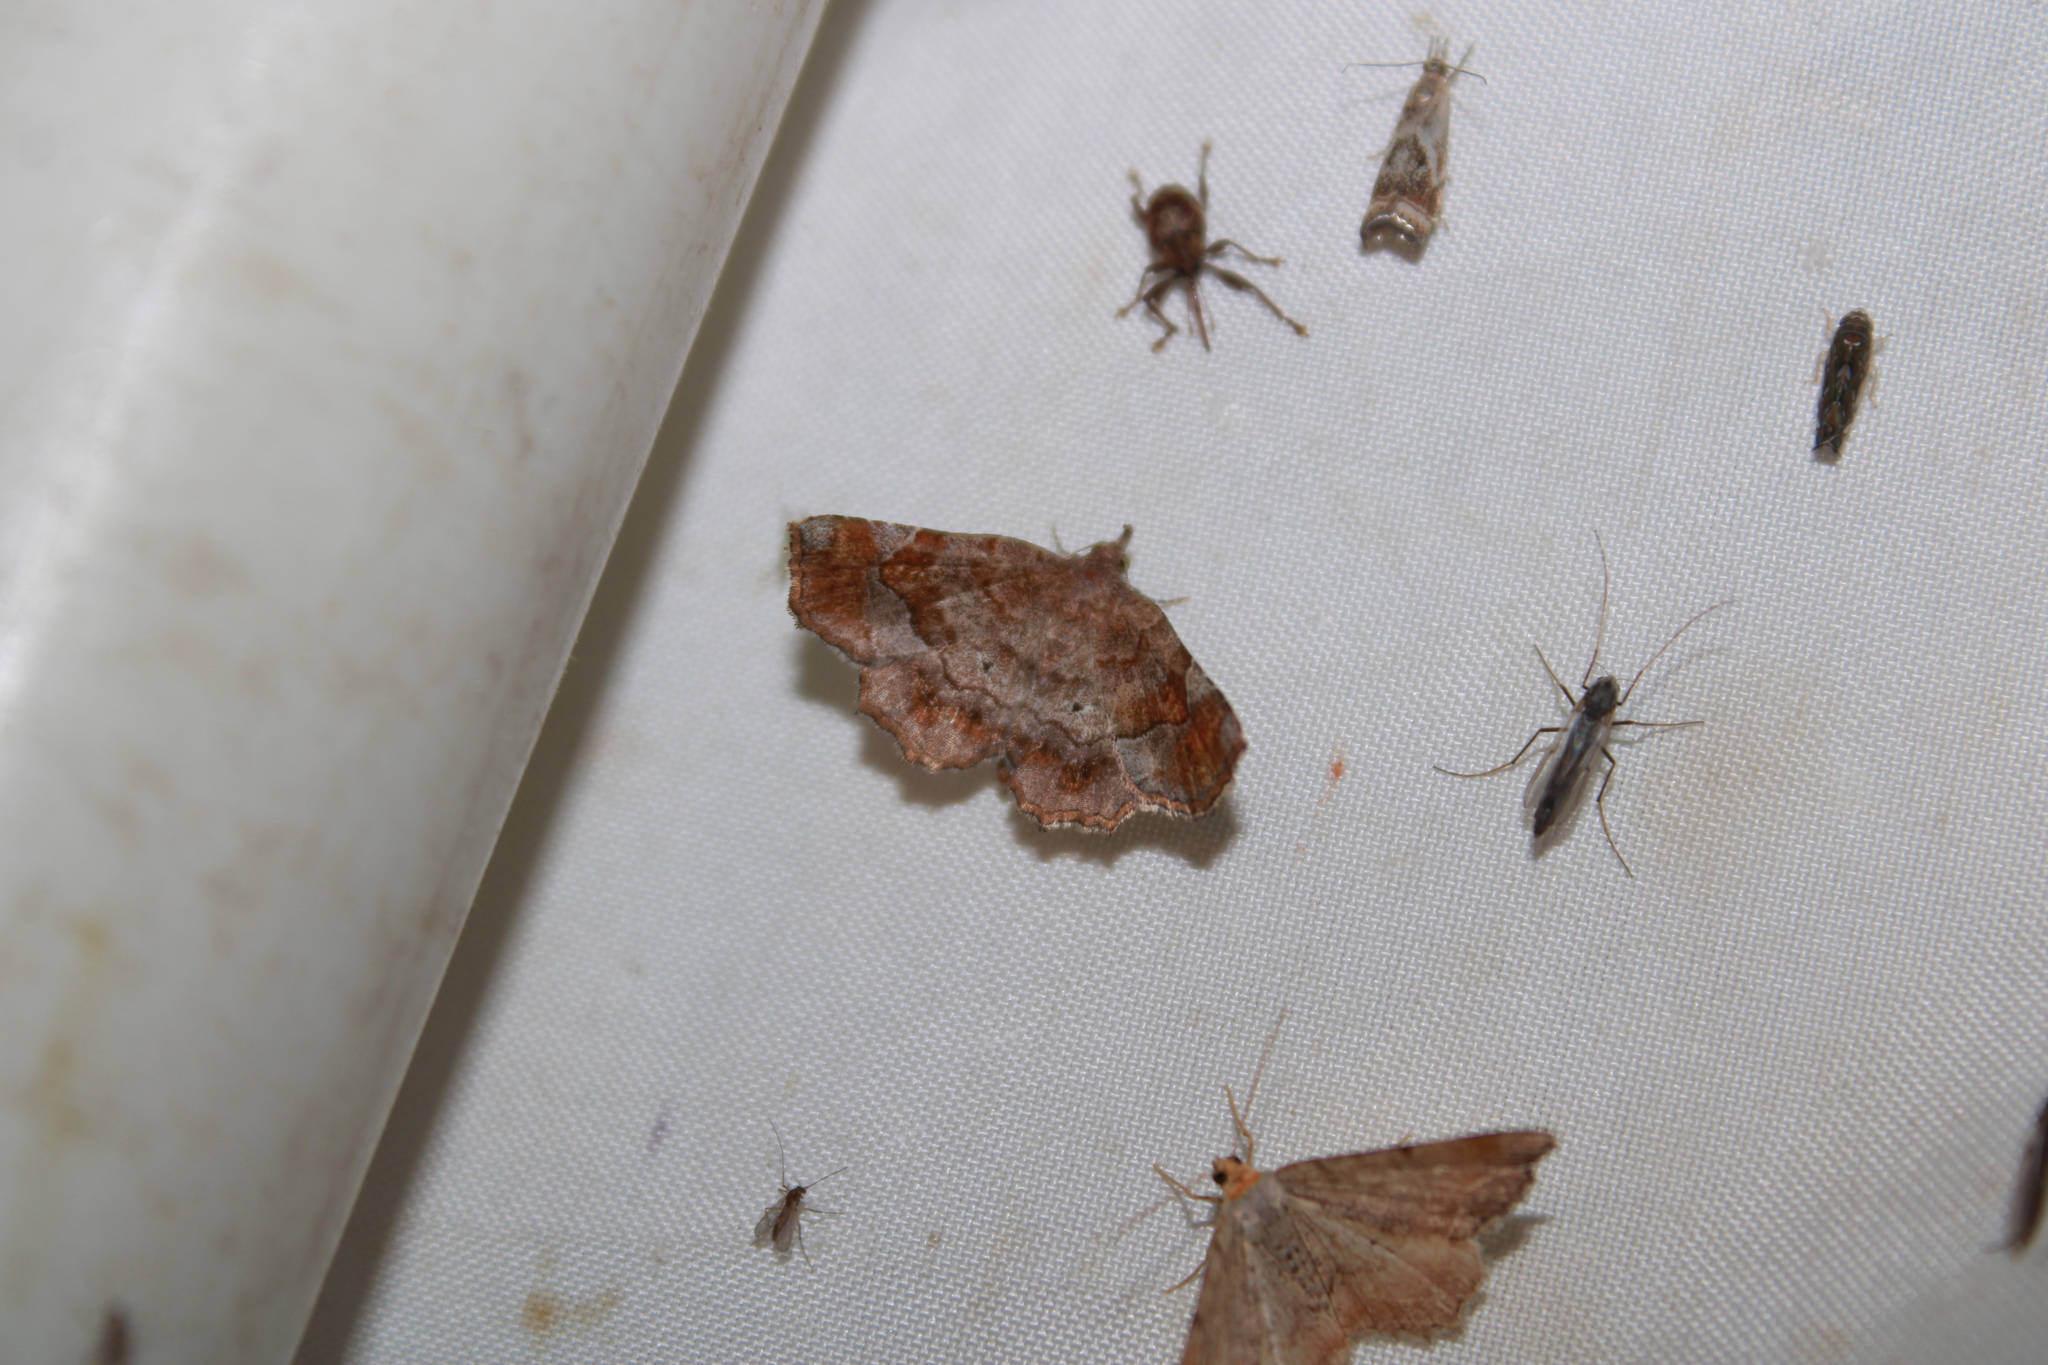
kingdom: Animalia
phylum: Arthropoda
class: Insecta
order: Lepidoptera
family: Erebidae
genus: Pangrapta
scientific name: Pangrapta decoralis
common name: Decorated owlet
